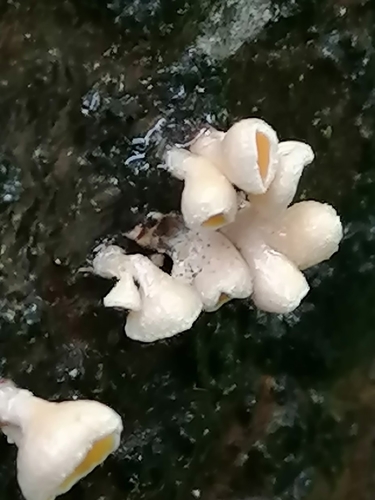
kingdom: Fungi
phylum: Ascomycota
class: Leotiomycetes
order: Helotiales
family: Lachnaceae
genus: Lachnellula
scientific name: Lachnellula
